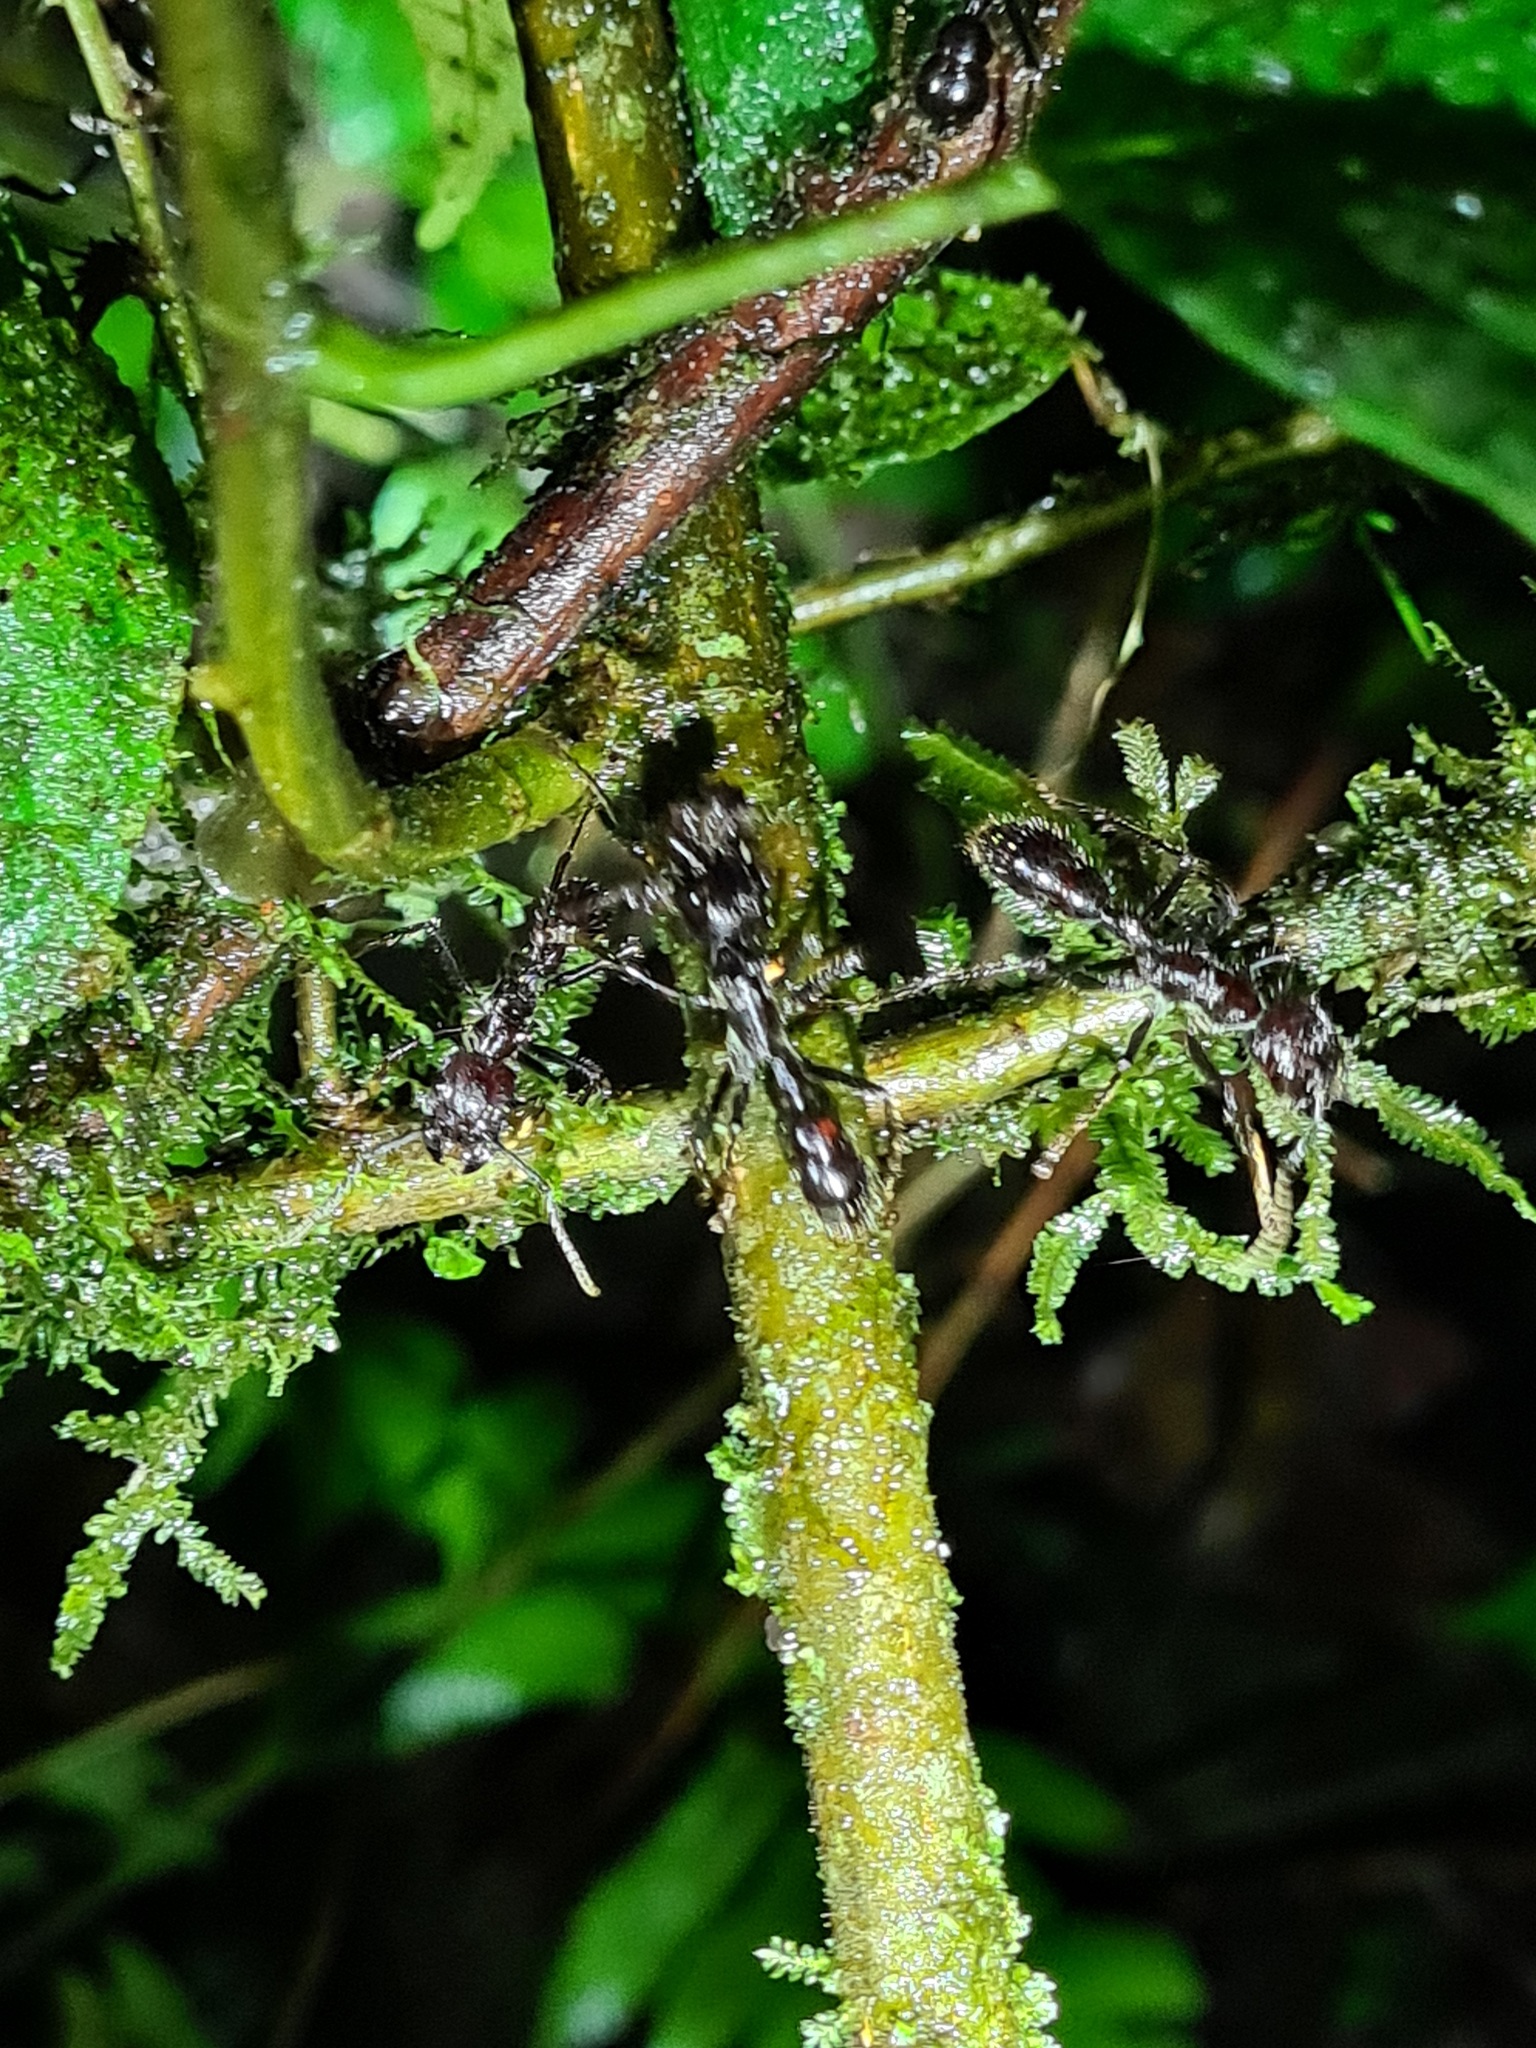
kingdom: Animalia
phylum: Arthropoda
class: Insecta
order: Hymenoptera
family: Formicidae
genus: Paraponera
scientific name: Paraponera clavata
